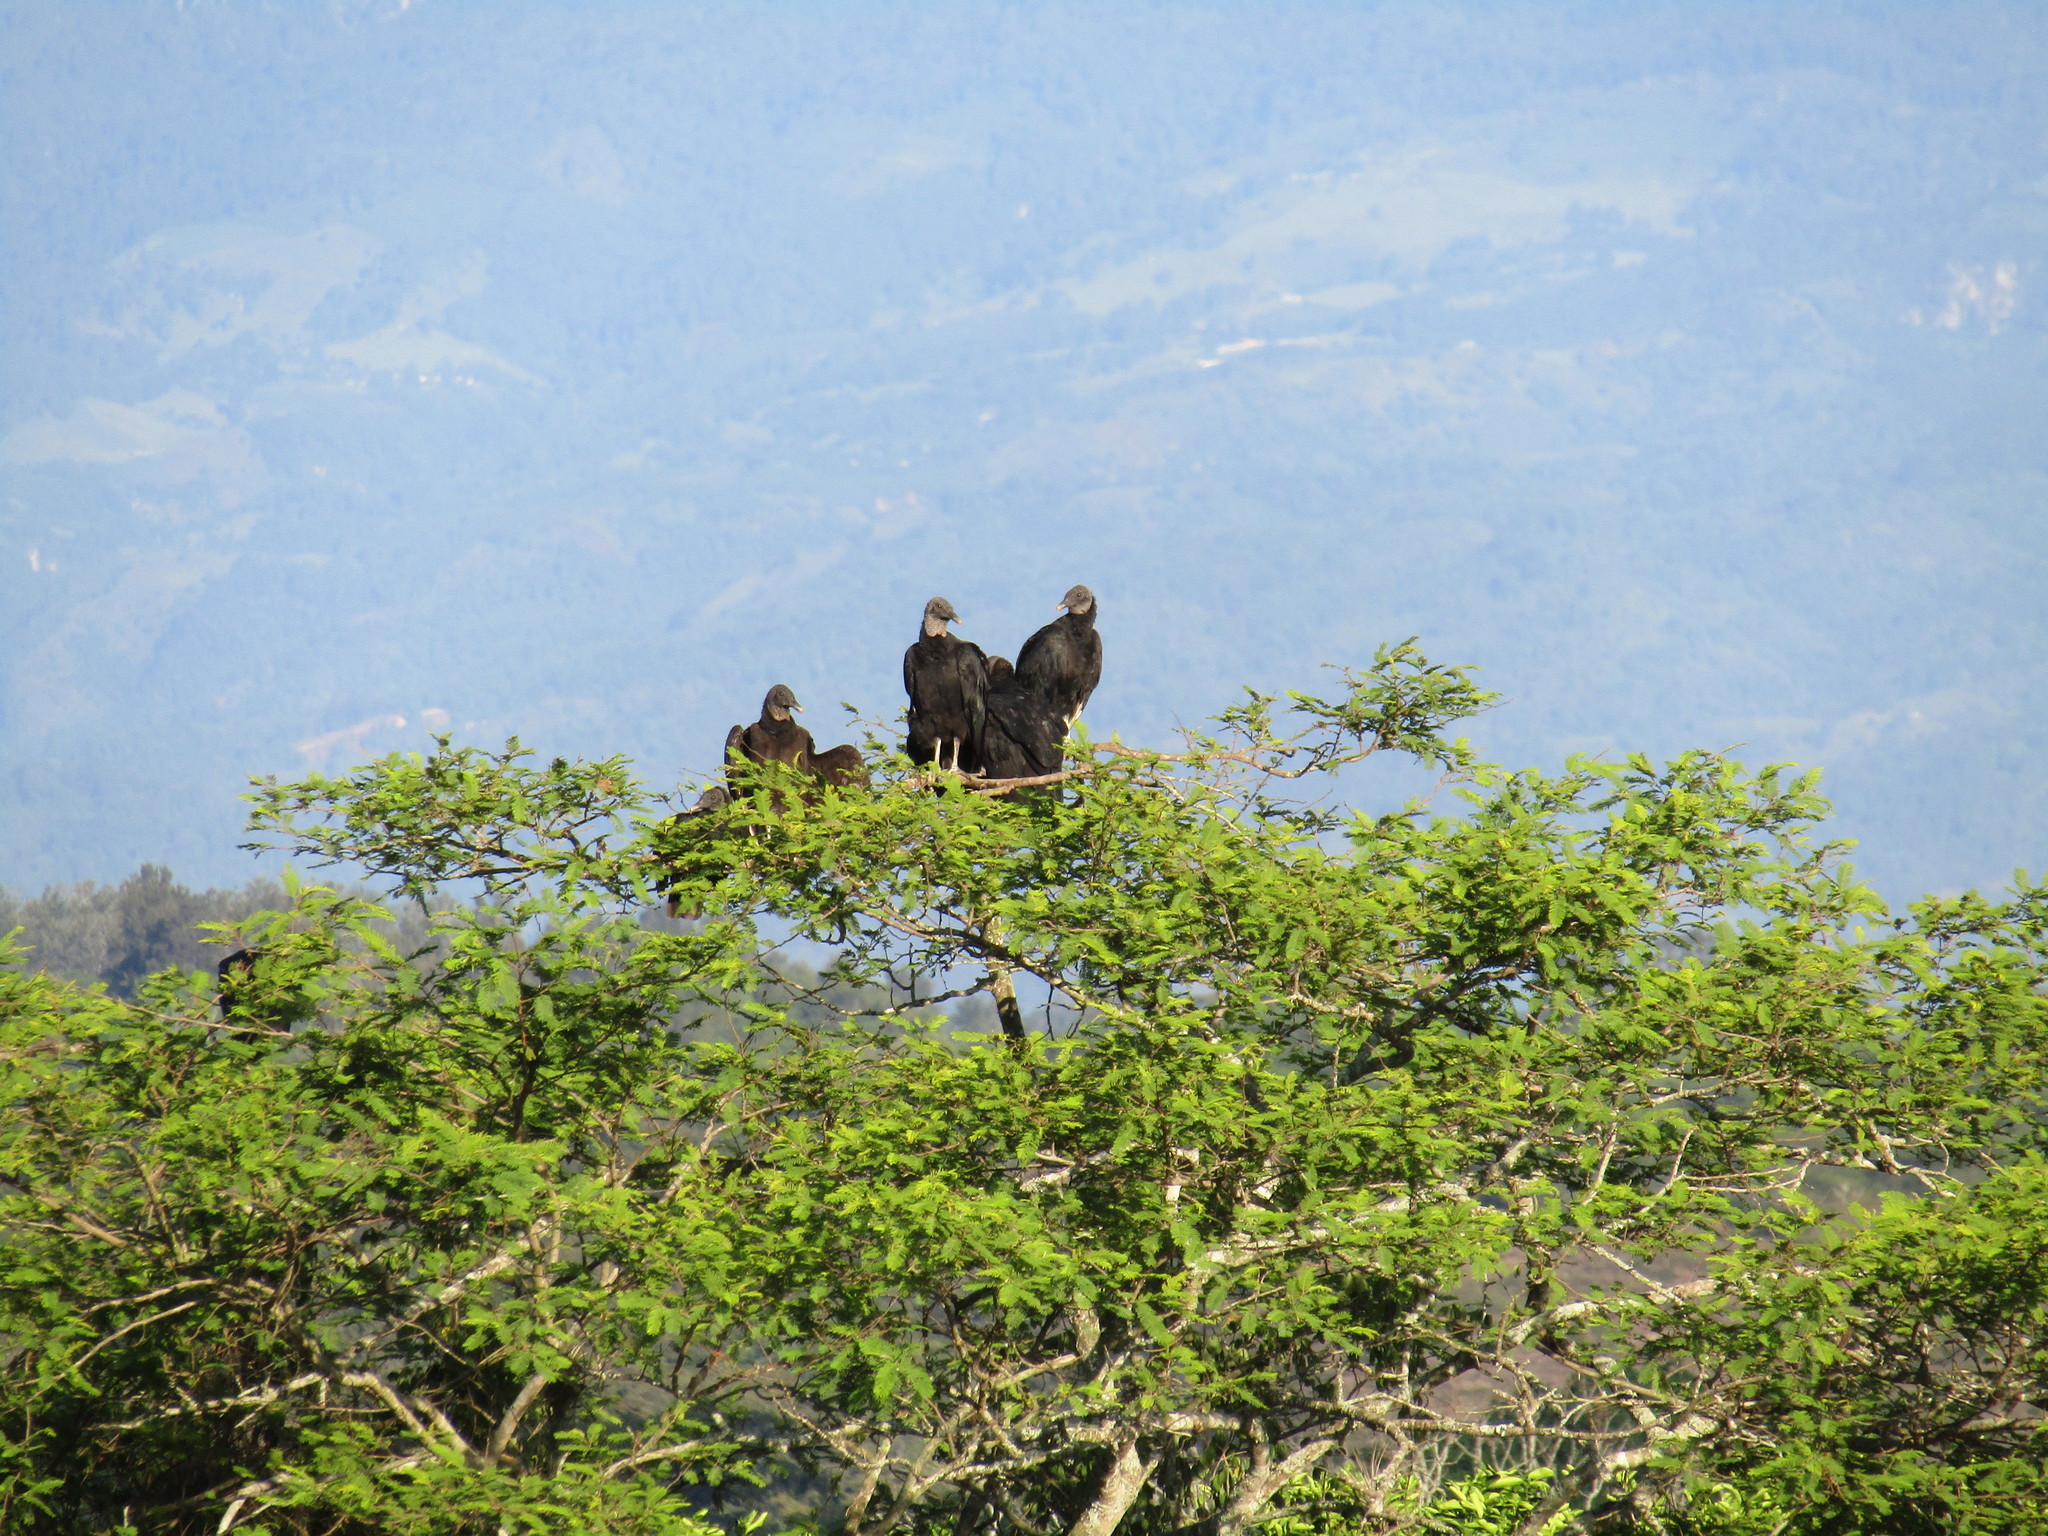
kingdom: Animalia
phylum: Chordata
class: Aves
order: Accipitriformes
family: Cathartidae
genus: Coragyps
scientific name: Coragyps atratus
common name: Black vulture
